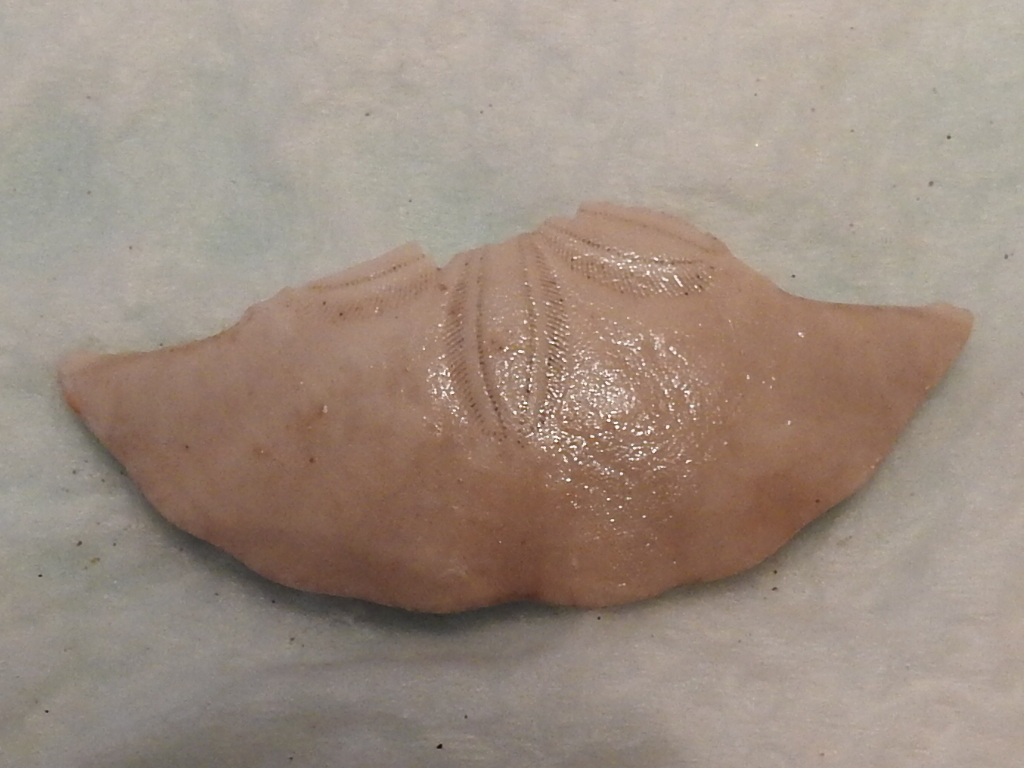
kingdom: Animalia
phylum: Echinodermata
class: Echinoidea
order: Echinolampadacea
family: Mellitidae
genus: Mellita
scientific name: Mellita quinquiesperforata
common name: Sand dollar
